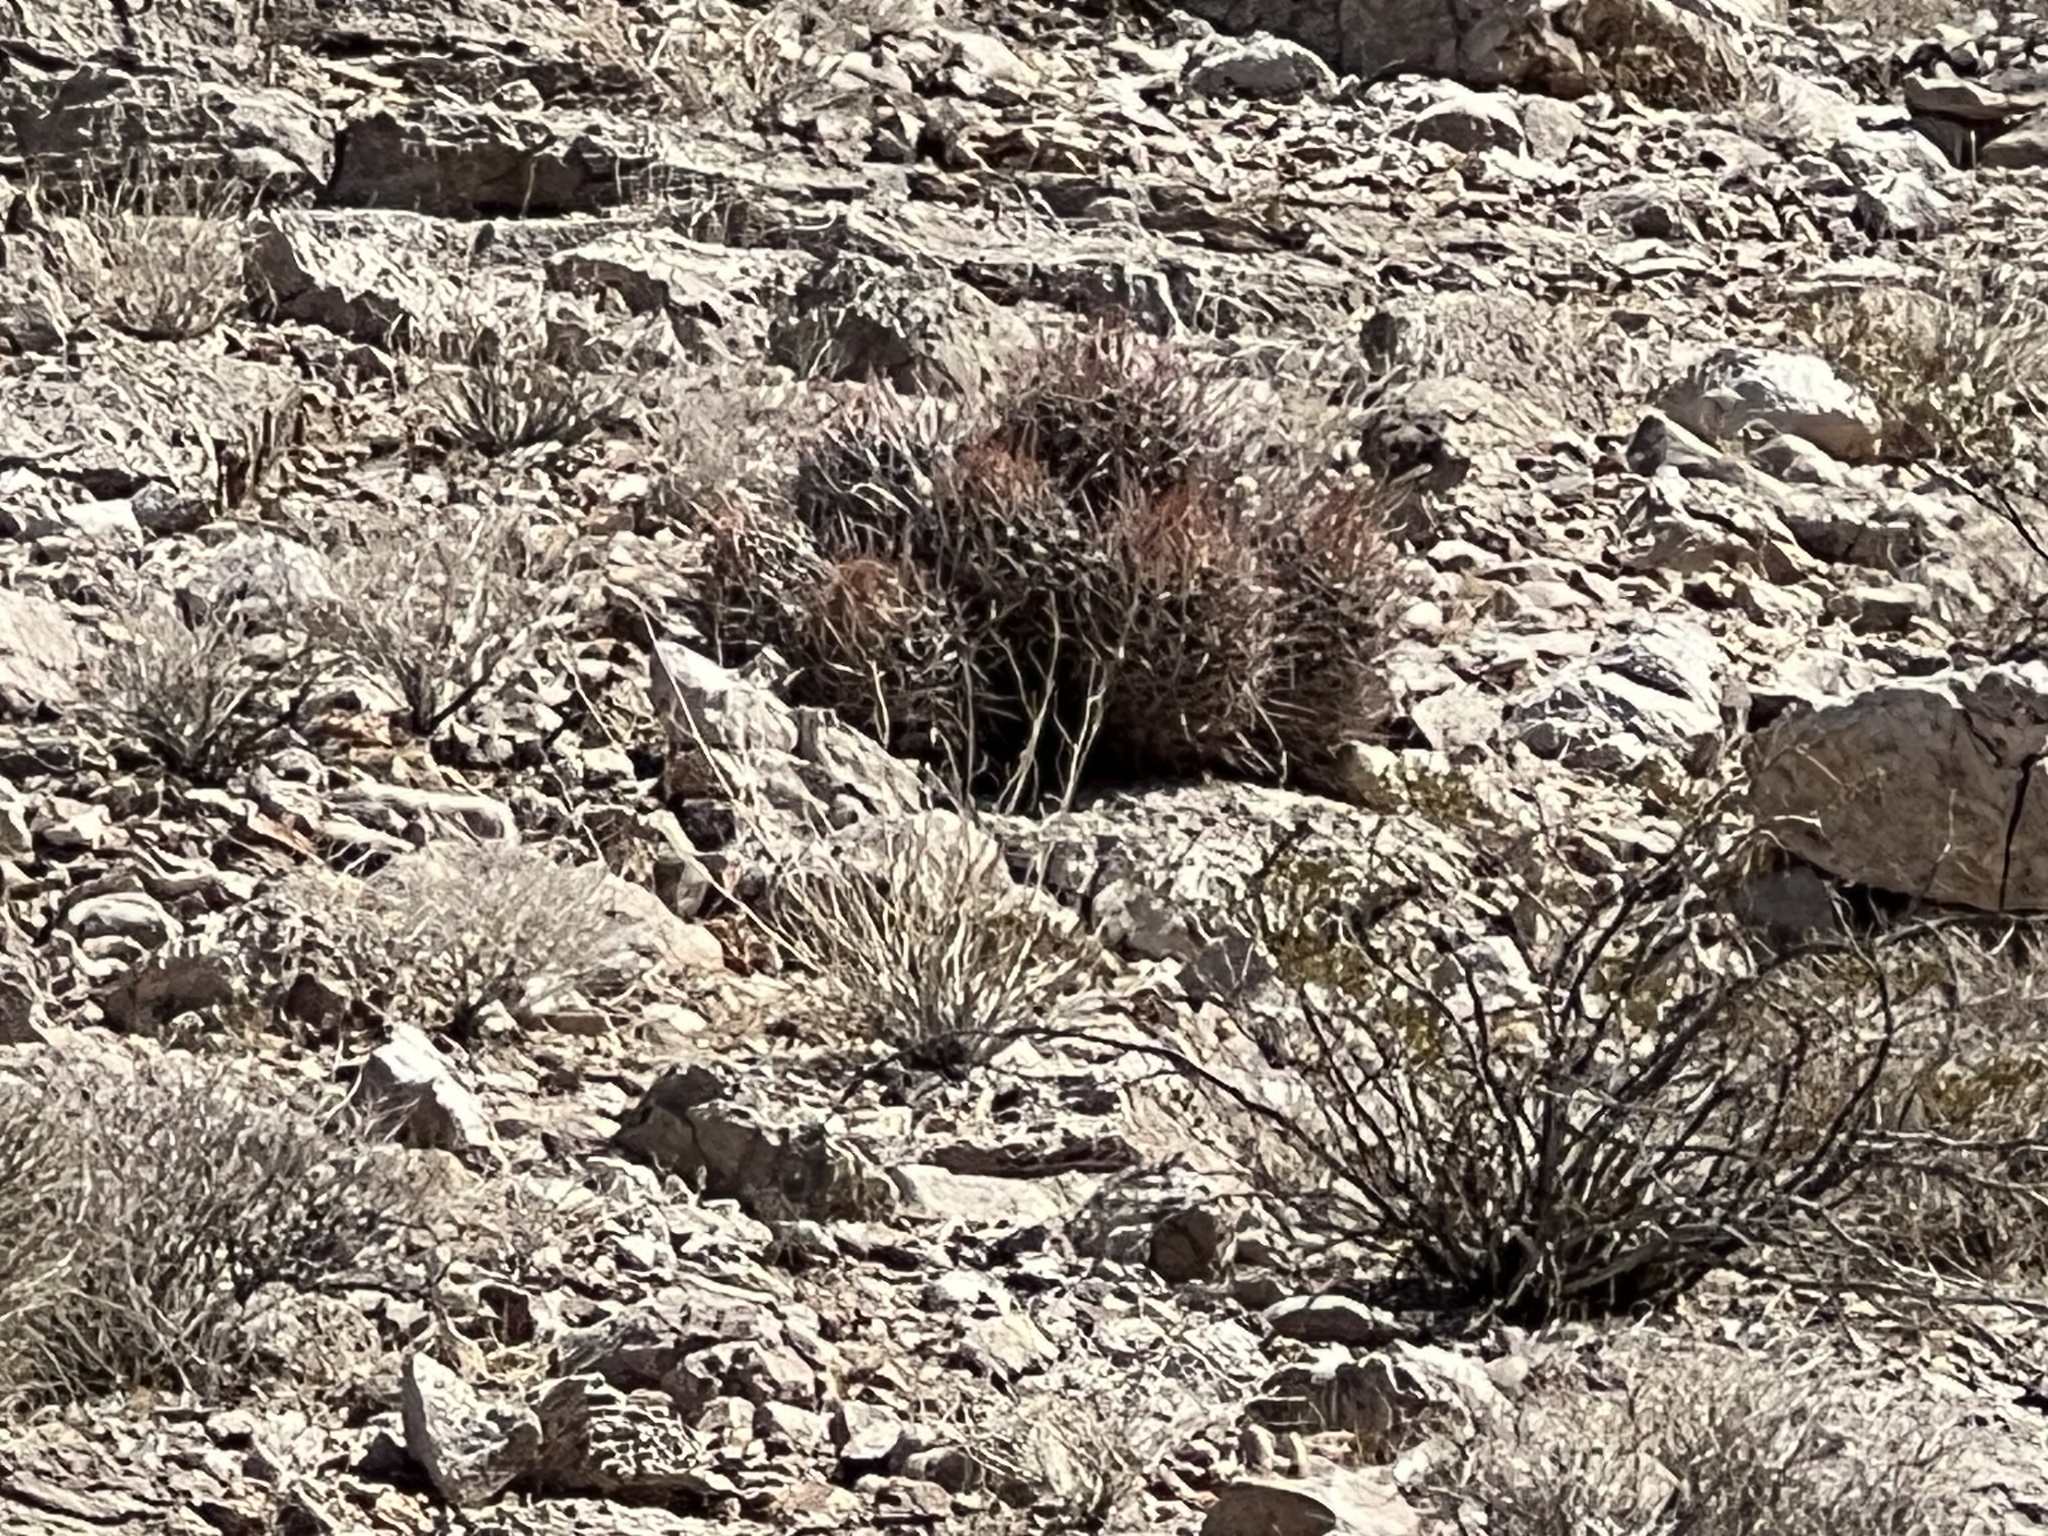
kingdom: Plantae
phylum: Tracheophyta
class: Magnoliopsida
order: Caryophyllales
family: Cactaceae
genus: Echinocactus
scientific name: Echinocactus polycephalus
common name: Cottontop cactus
